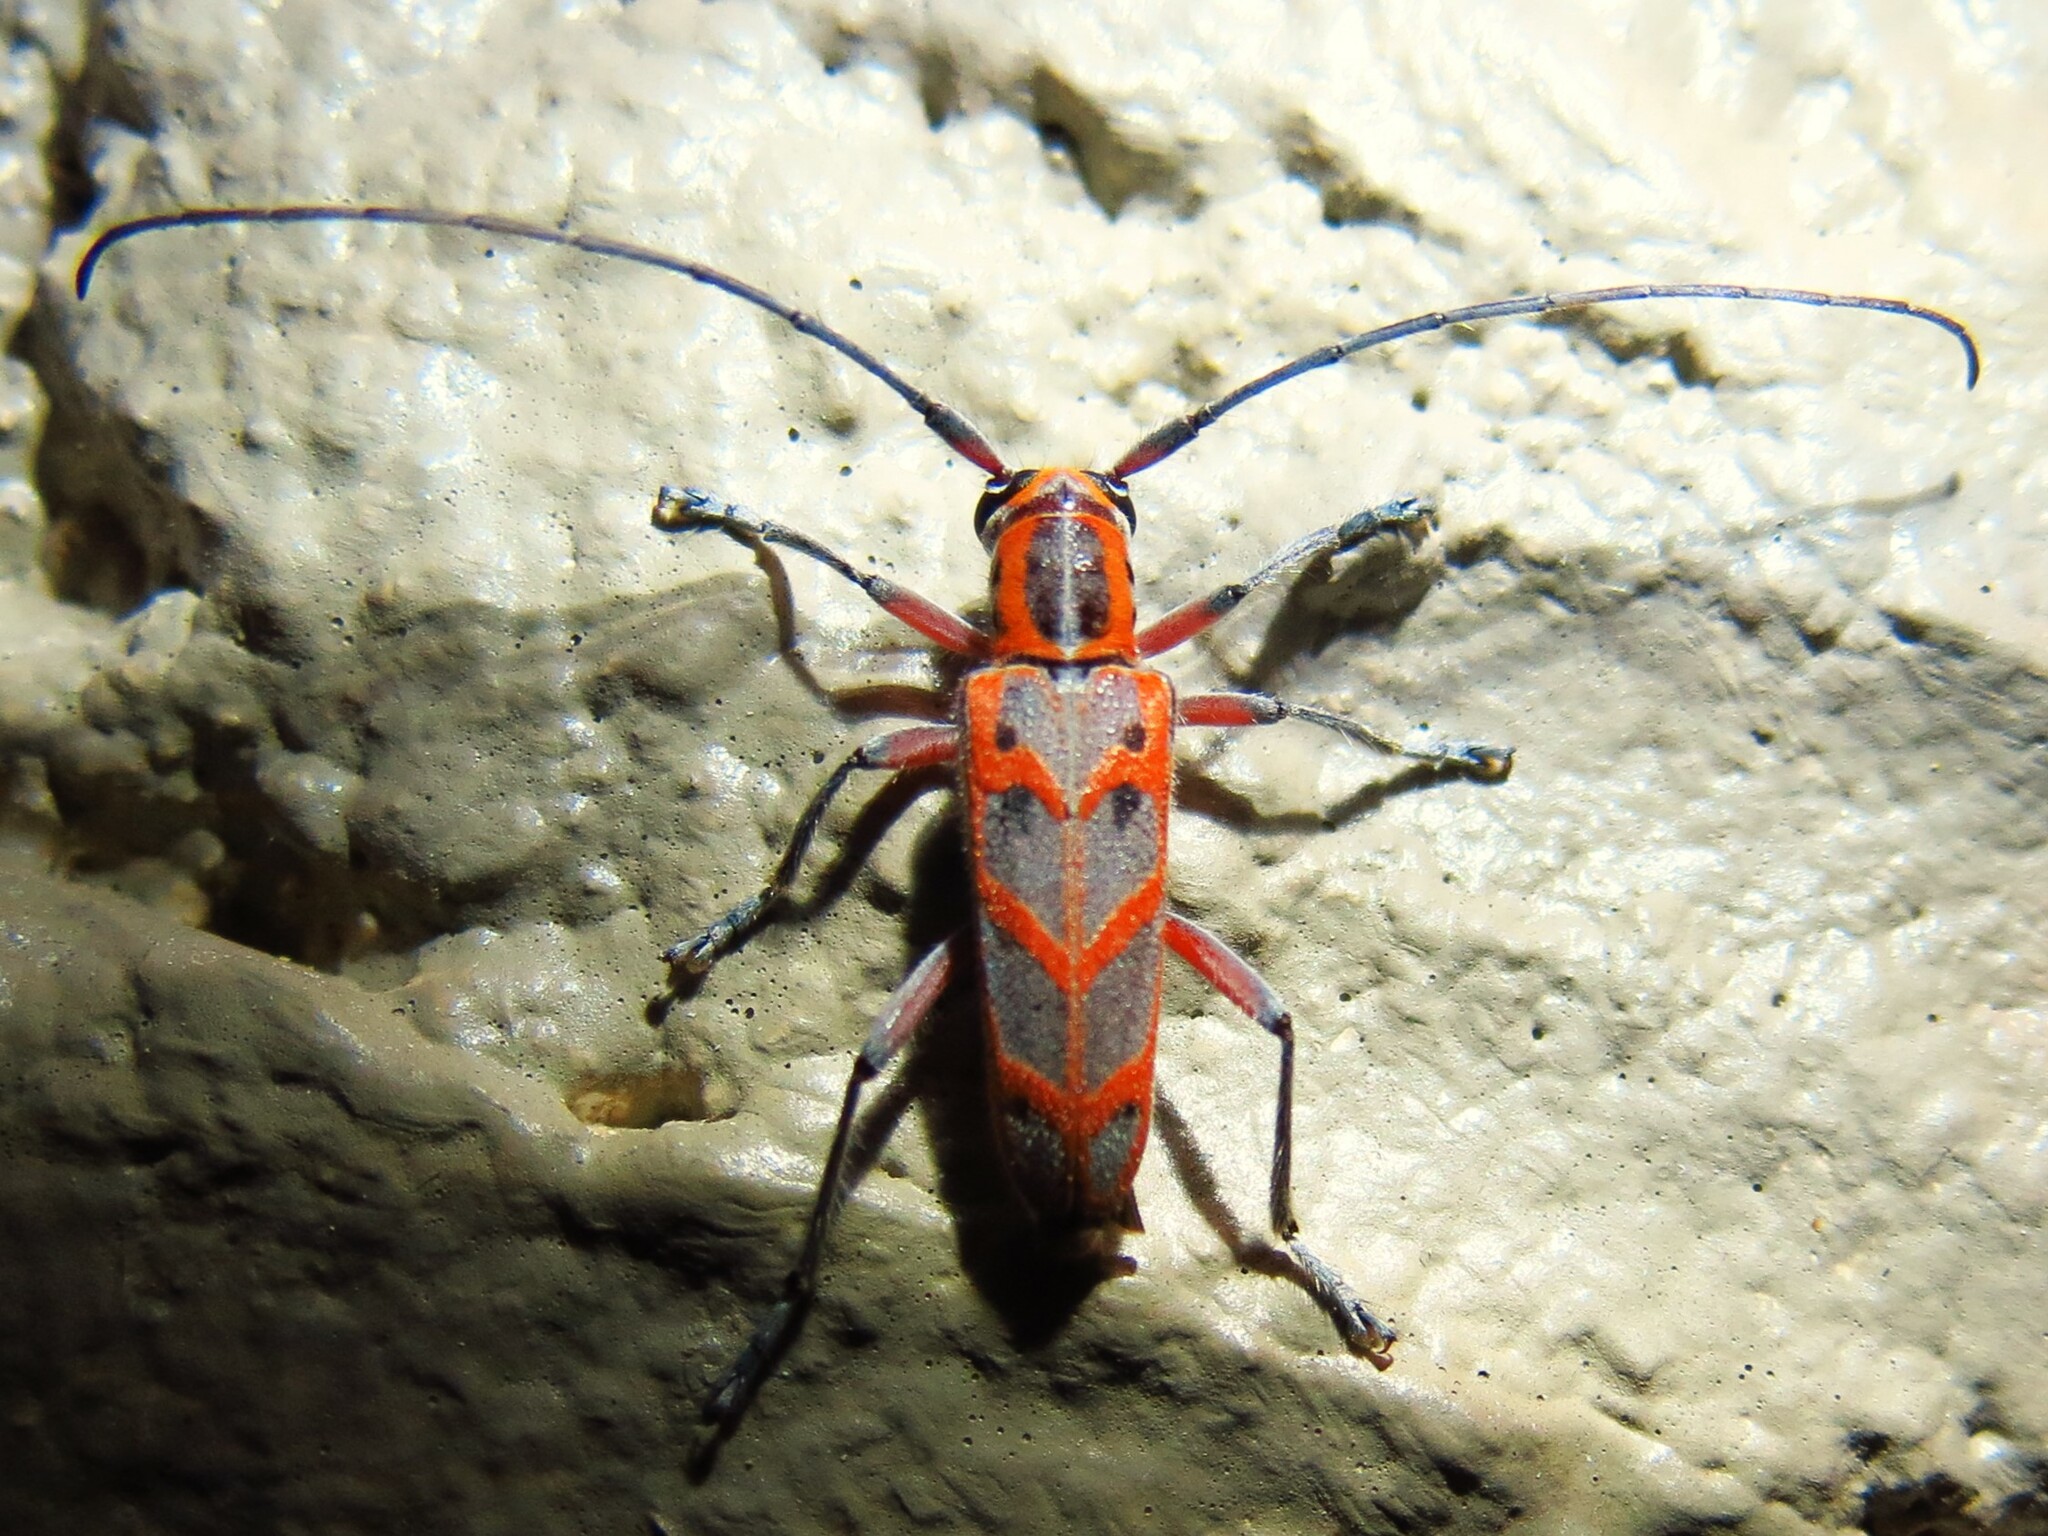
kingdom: Animalia
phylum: Arthropoda
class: Insecta
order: Coleoptera
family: Cerambycidae
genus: Saperda
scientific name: Saperda tridentata
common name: Elm borer
